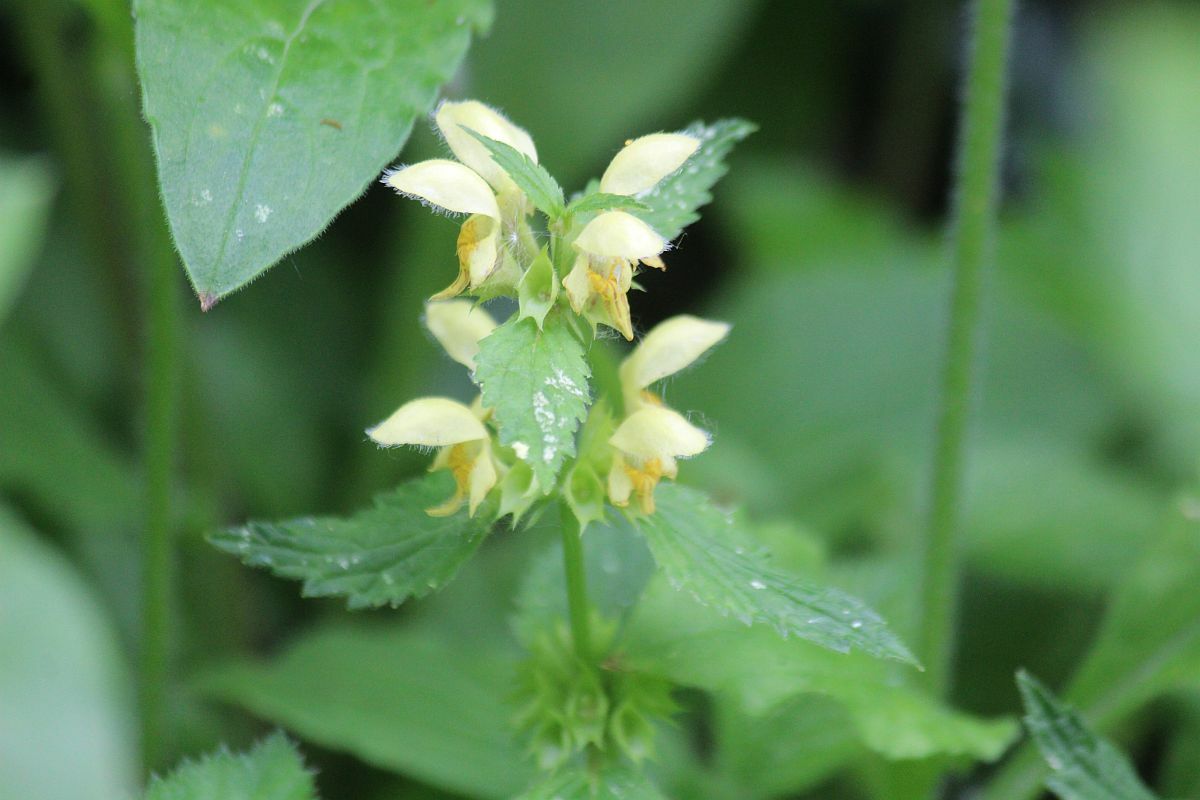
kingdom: Plantae
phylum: Tracheophyta
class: Magnoliopsida
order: Lamiales
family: Lamiaceae
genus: Lamium
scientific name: Lamium galeobdolon
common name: Yellow archangel
